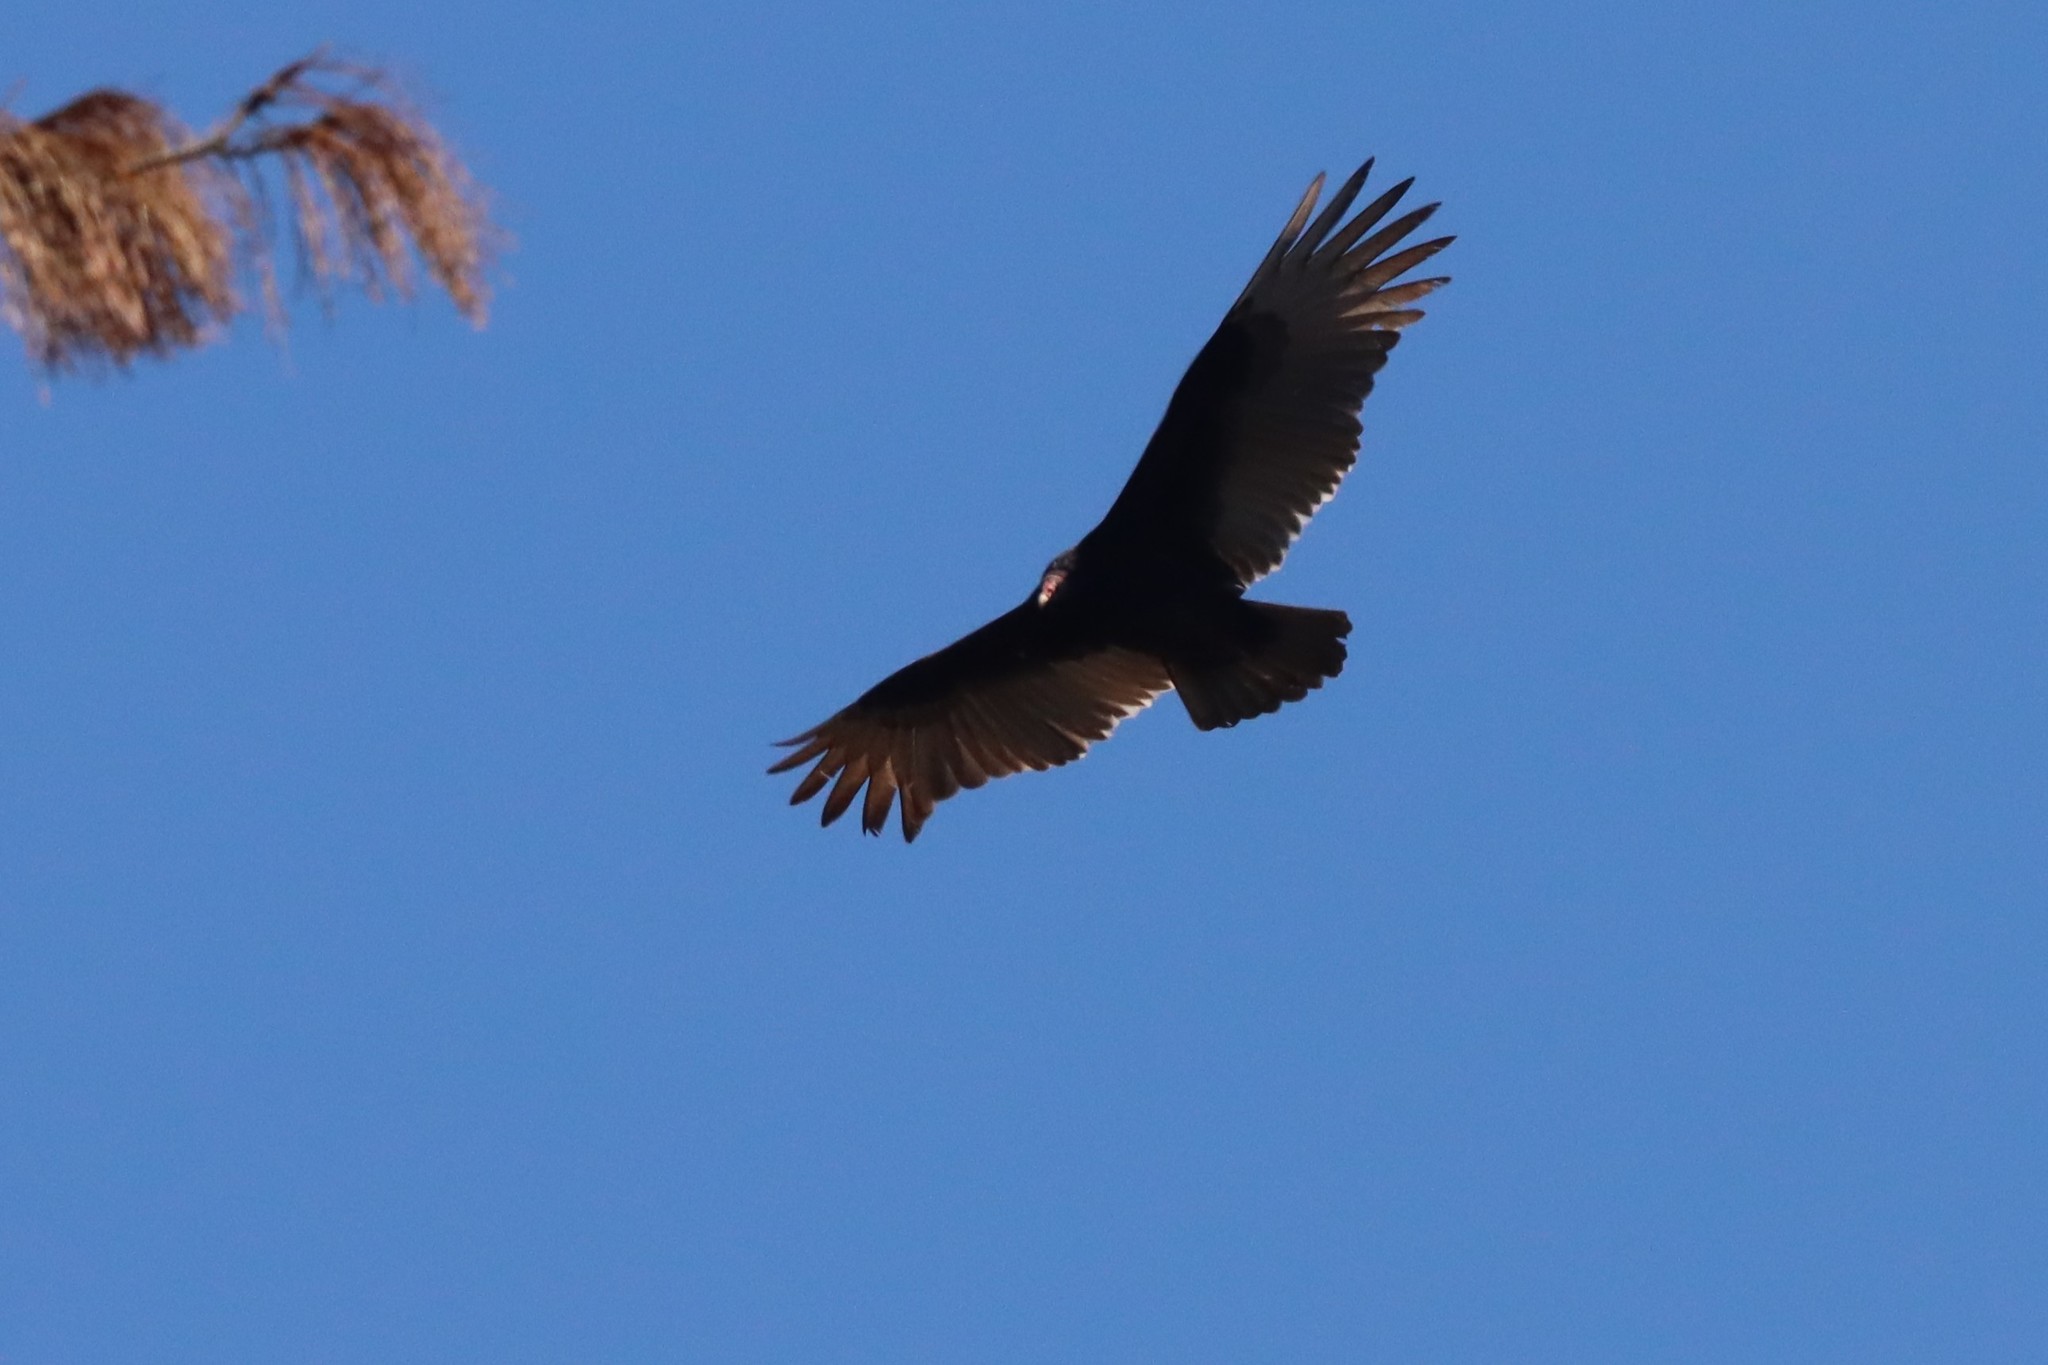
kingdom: Animalia
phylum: Chordata
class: Aves
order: Accipitriformes
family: Cathartidae
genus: Cathartes
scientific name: Cathartes aura
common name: Turkey vulture
